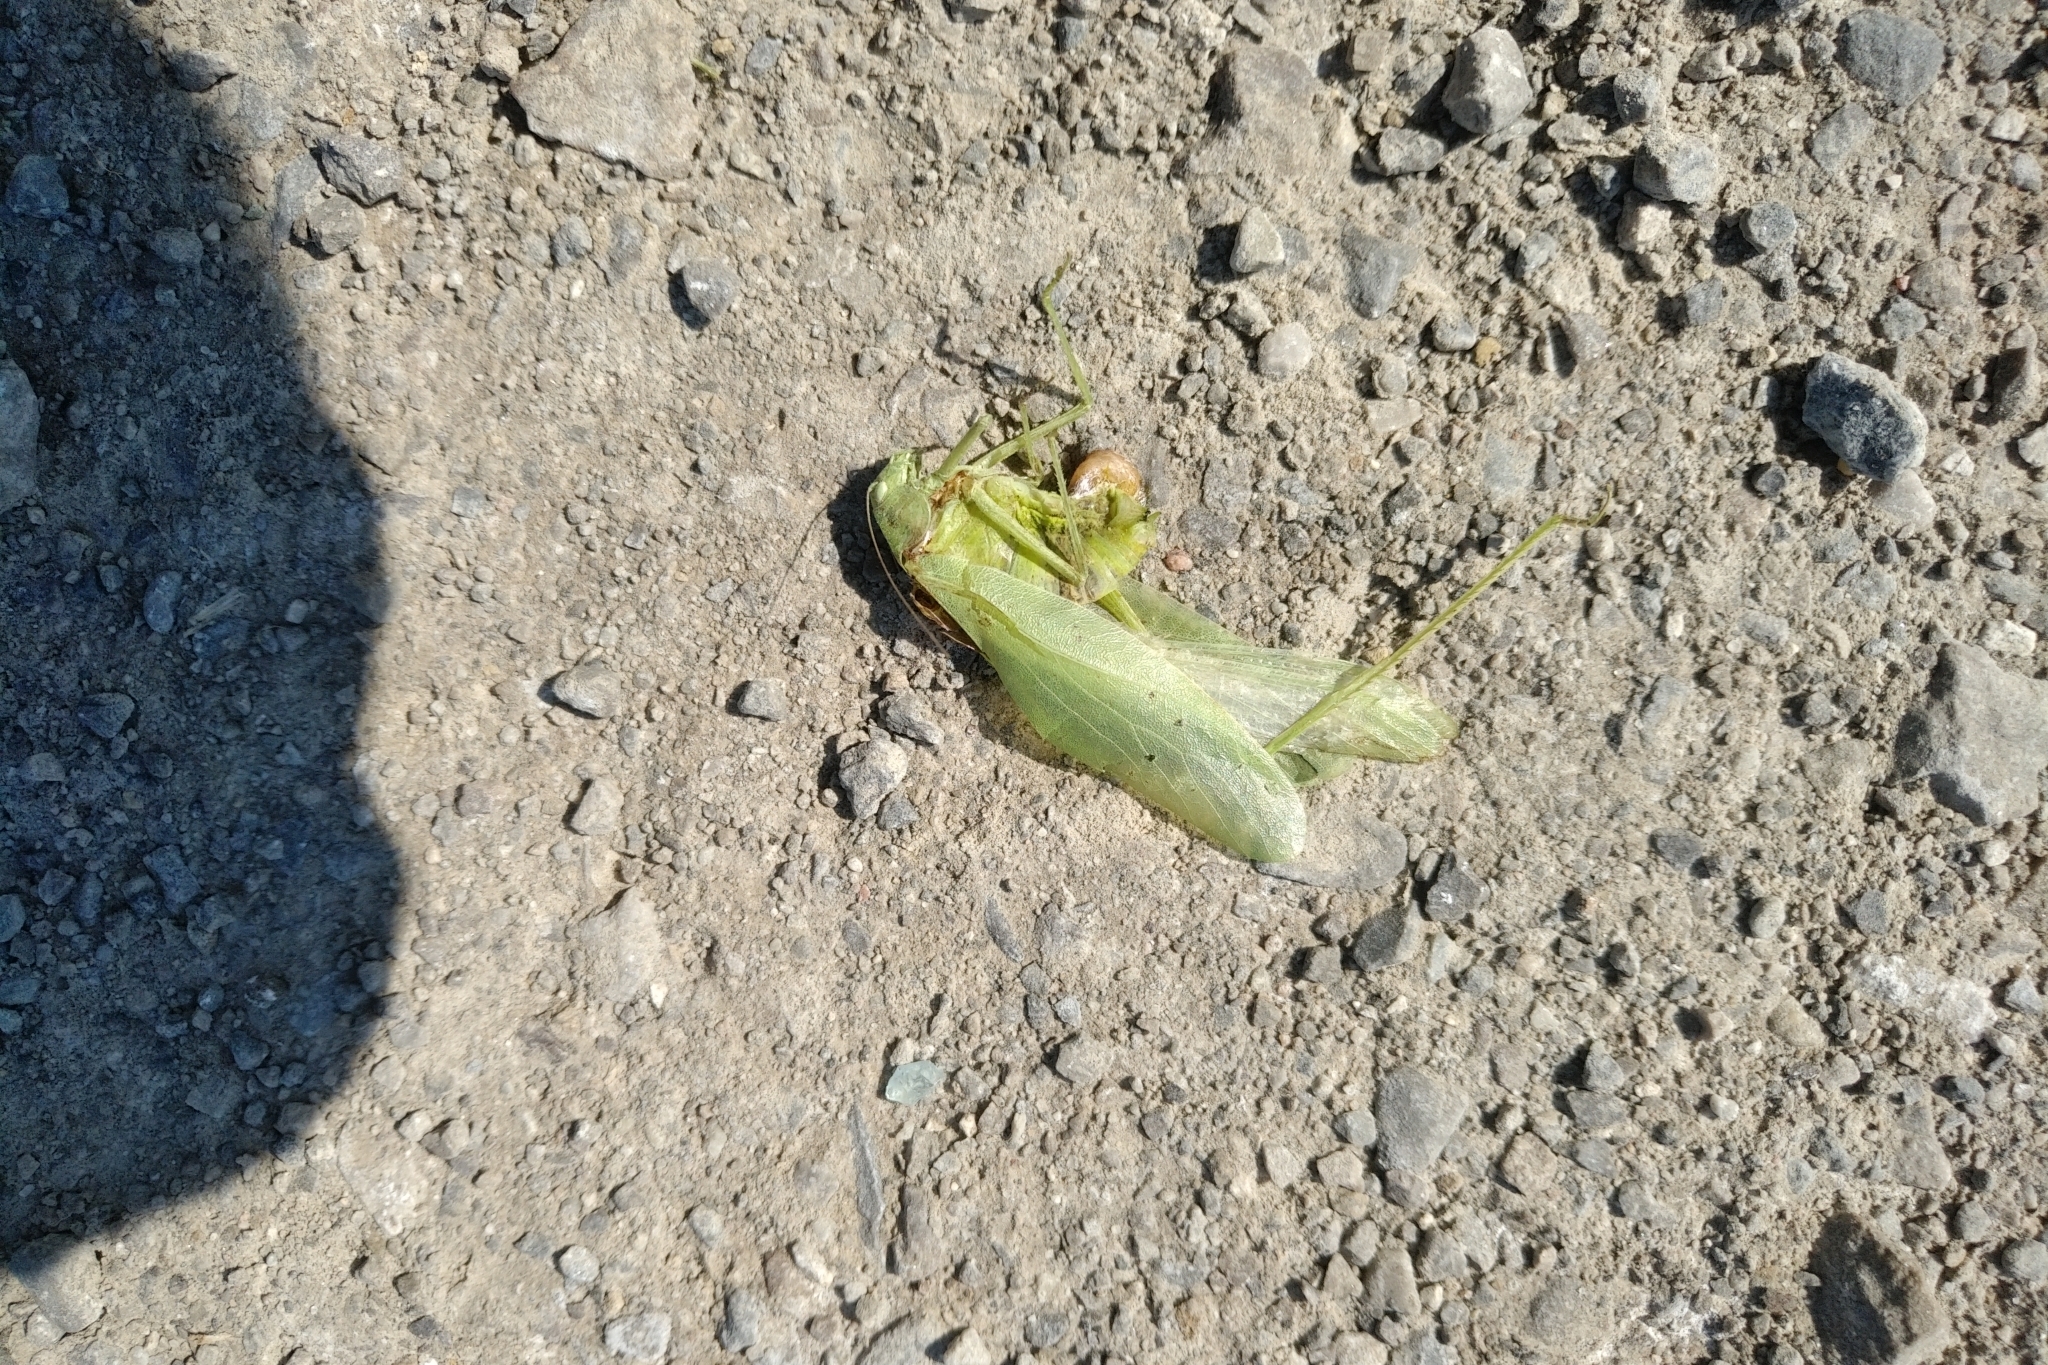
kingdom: Animalia
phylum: Arthropoda
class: Insecta
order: Orthoptera
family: Tettigoniidae
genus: Amblycorypha
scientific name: Amblycorypha oblongifolia
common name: Oblong-winged katydid
